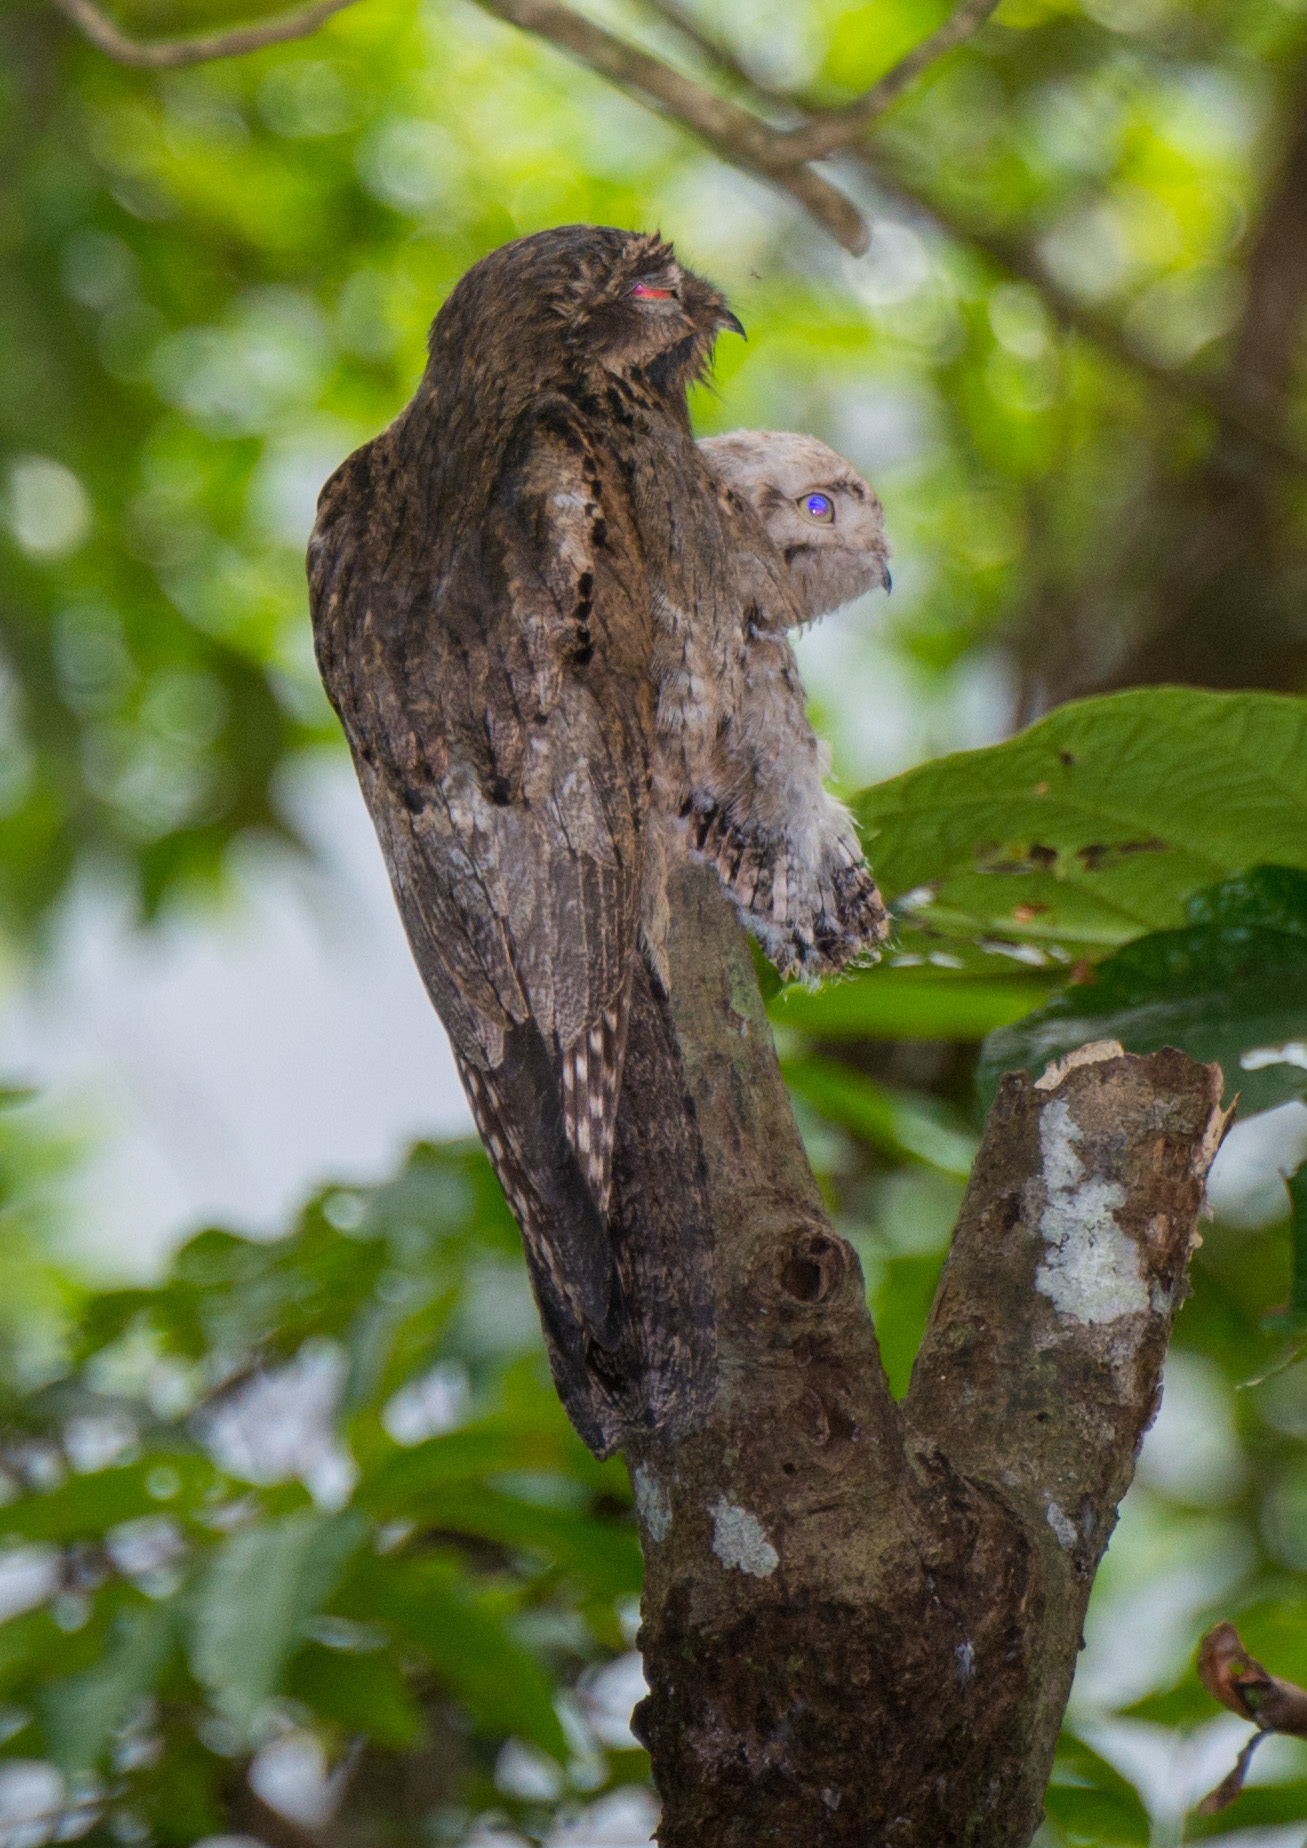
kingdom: Animalia
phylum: Chordata
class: Aves
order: Nyctibiiformes
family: Nyctibiidae
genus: Nyctibius
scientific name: Nyctibius griseus
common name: Common potoo
